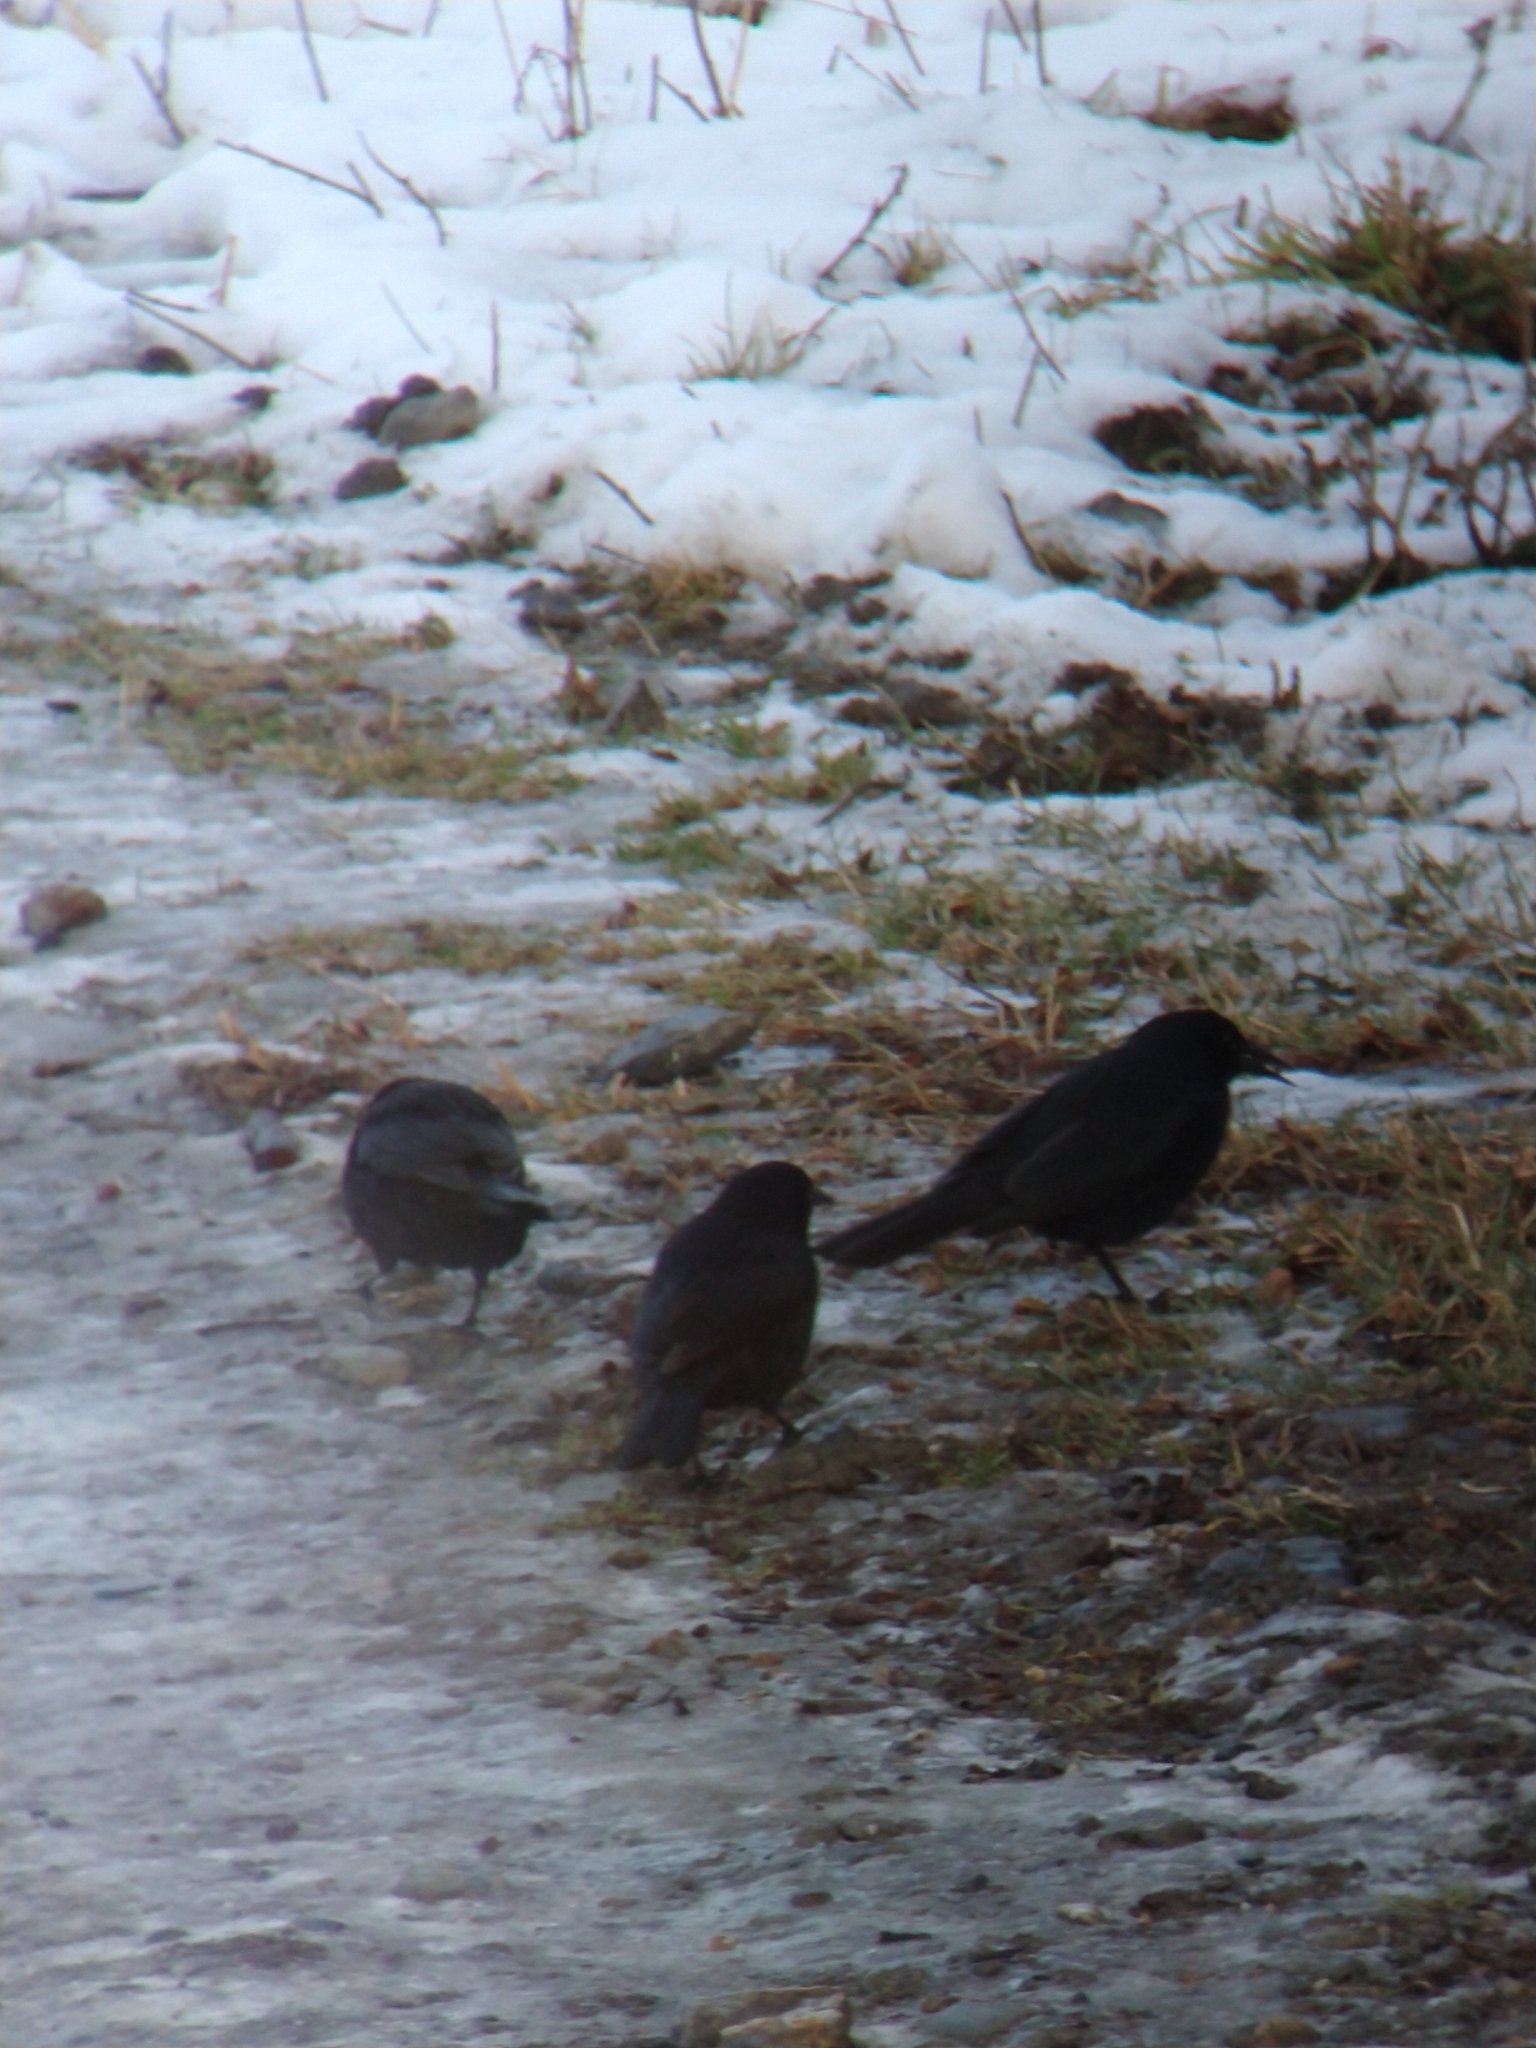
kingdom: Animalia
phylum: Chordata
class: Aves
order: Passeriformes
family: Icteridae
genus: Curaeus
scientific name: Curaeus curaeus
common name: Austral blackbird
